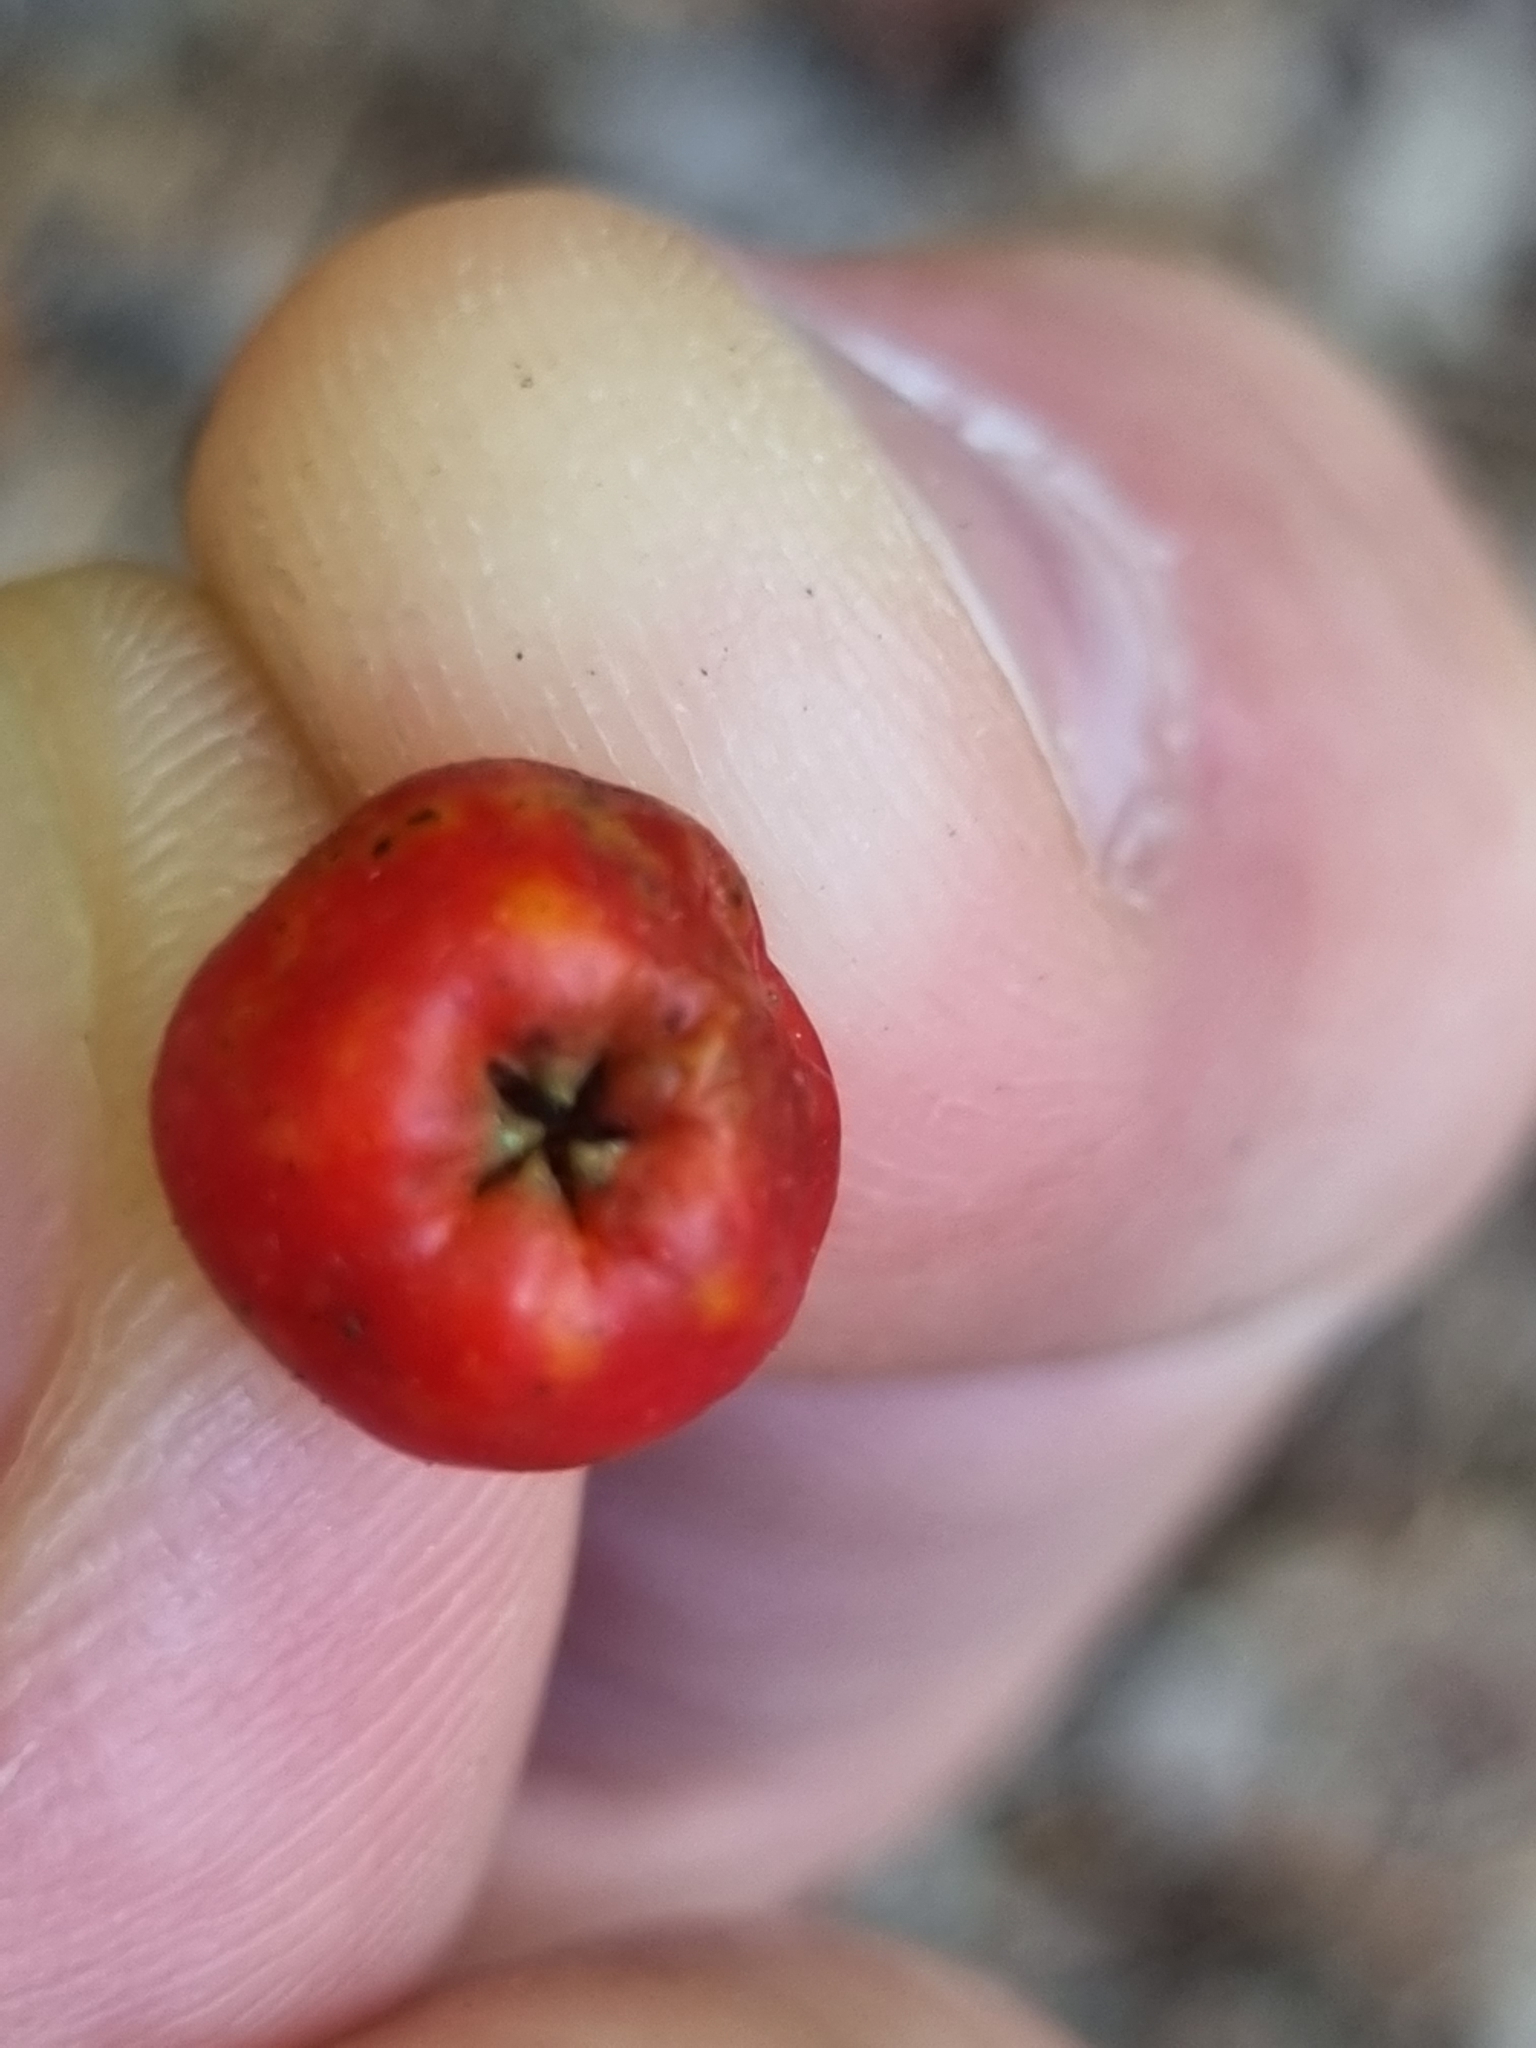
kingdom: Plantae
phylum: Tracheophyta
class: Magnoliopsida
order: Rosales
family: Rosaceae
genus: Sorbus
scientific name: Sorbus aucuparia
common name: Rowan
